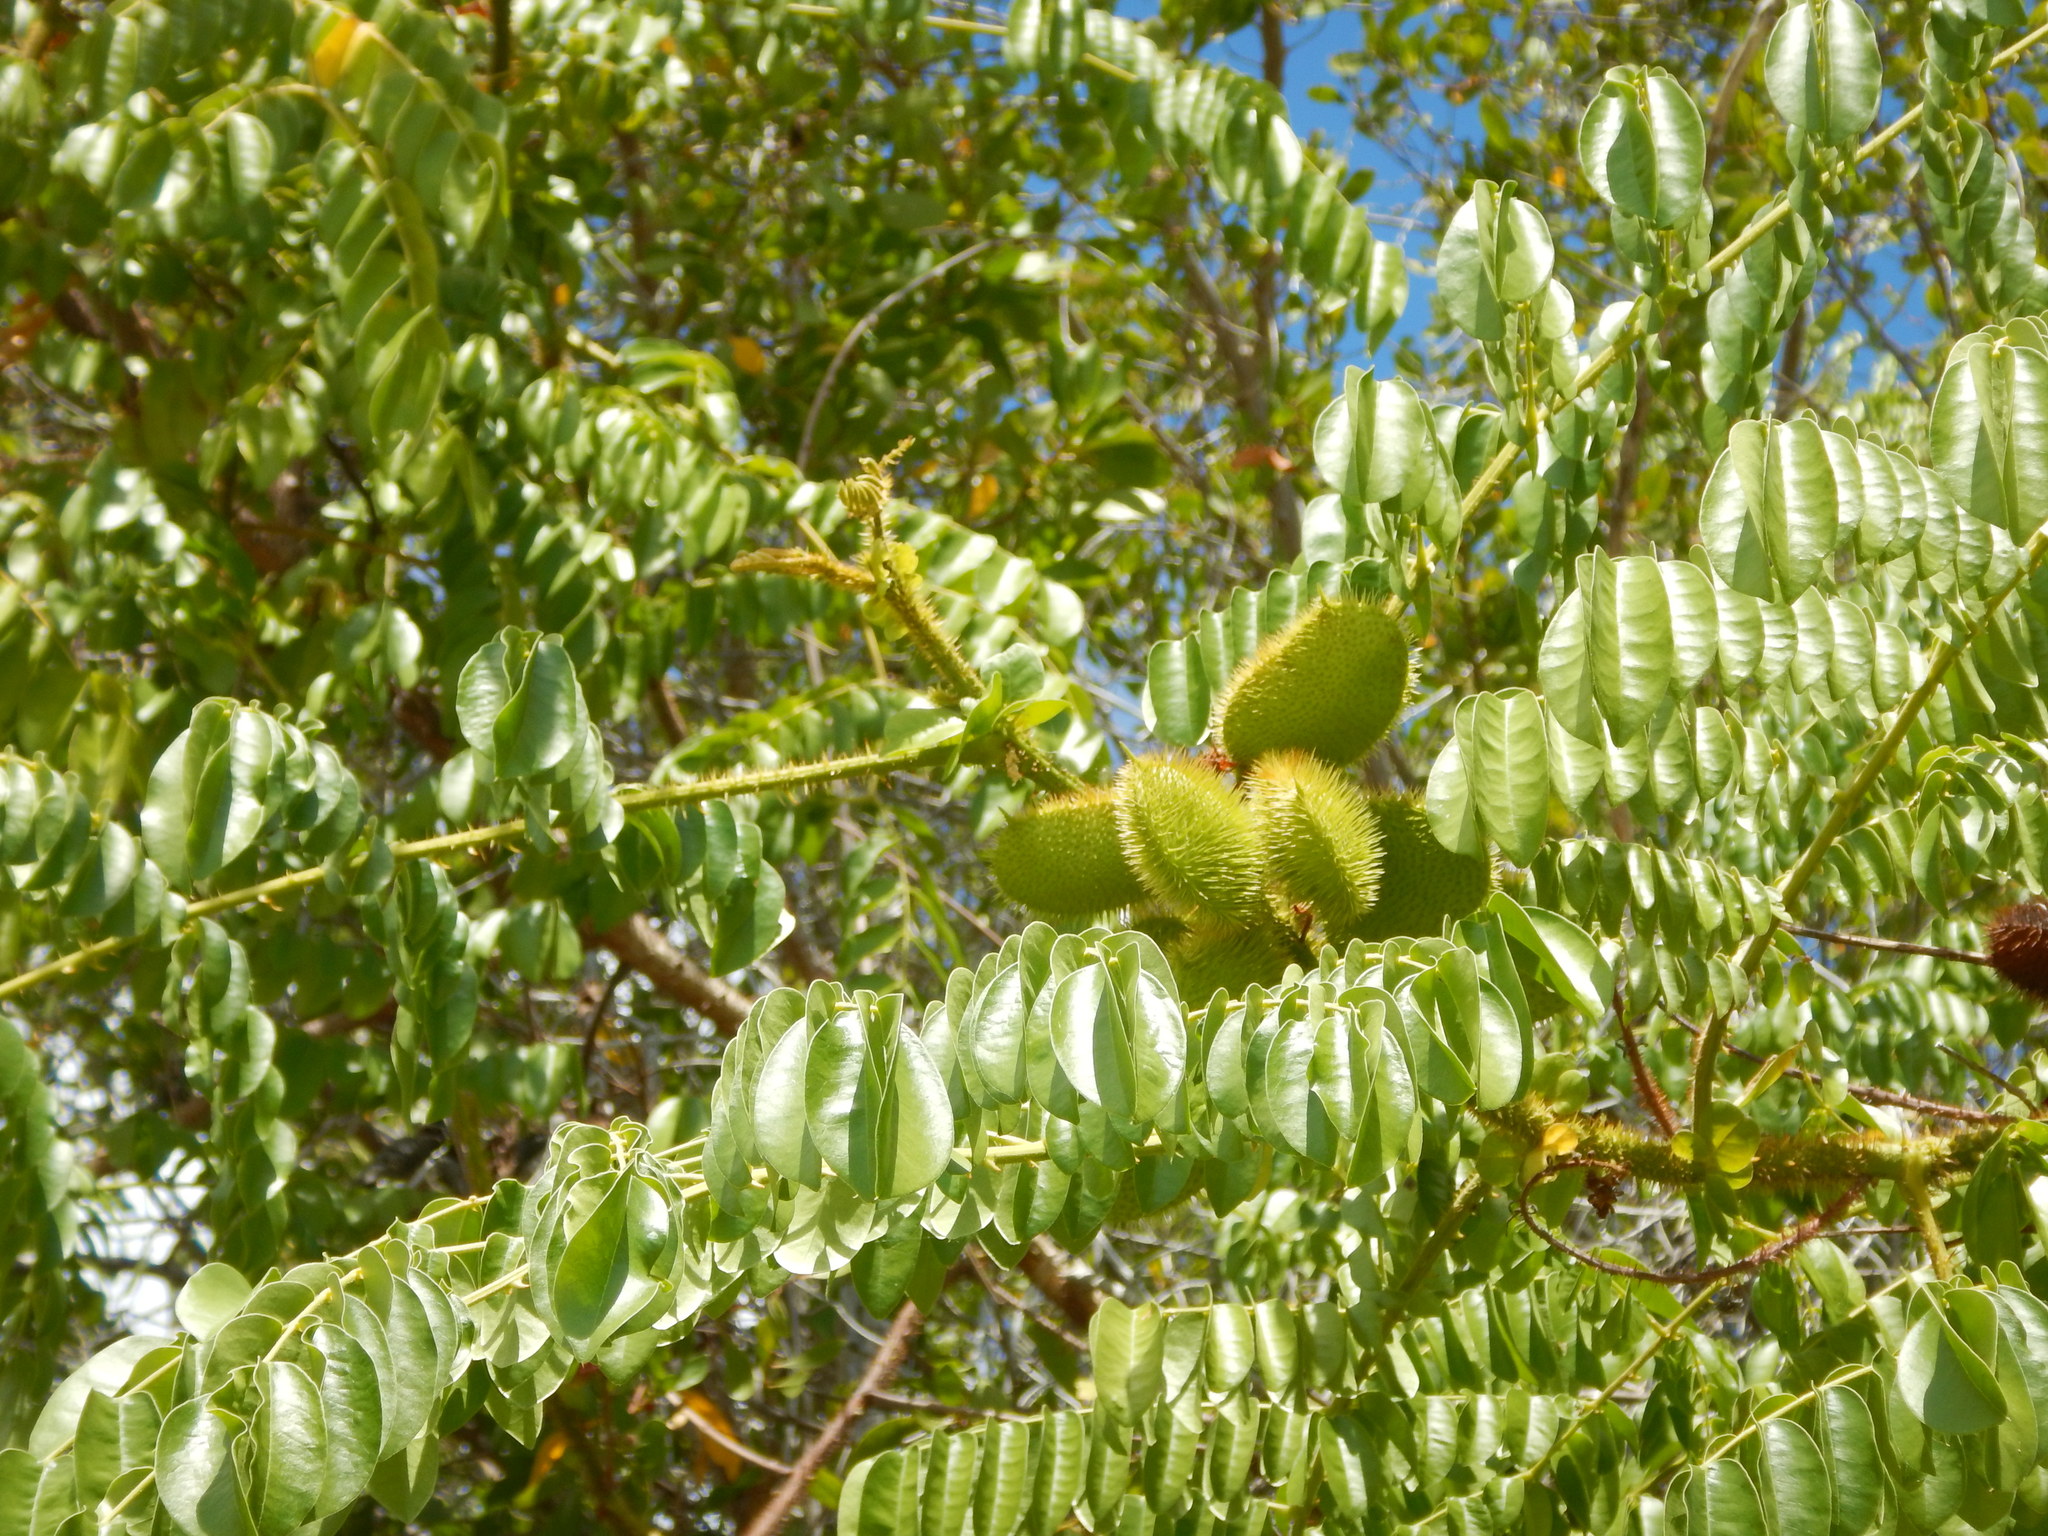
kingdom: Plantae
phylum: Tracheophyta
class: Magnoliopsida
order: Fabales
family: Fabaceae
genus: Guilandina
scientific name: Guilandina bonduc
